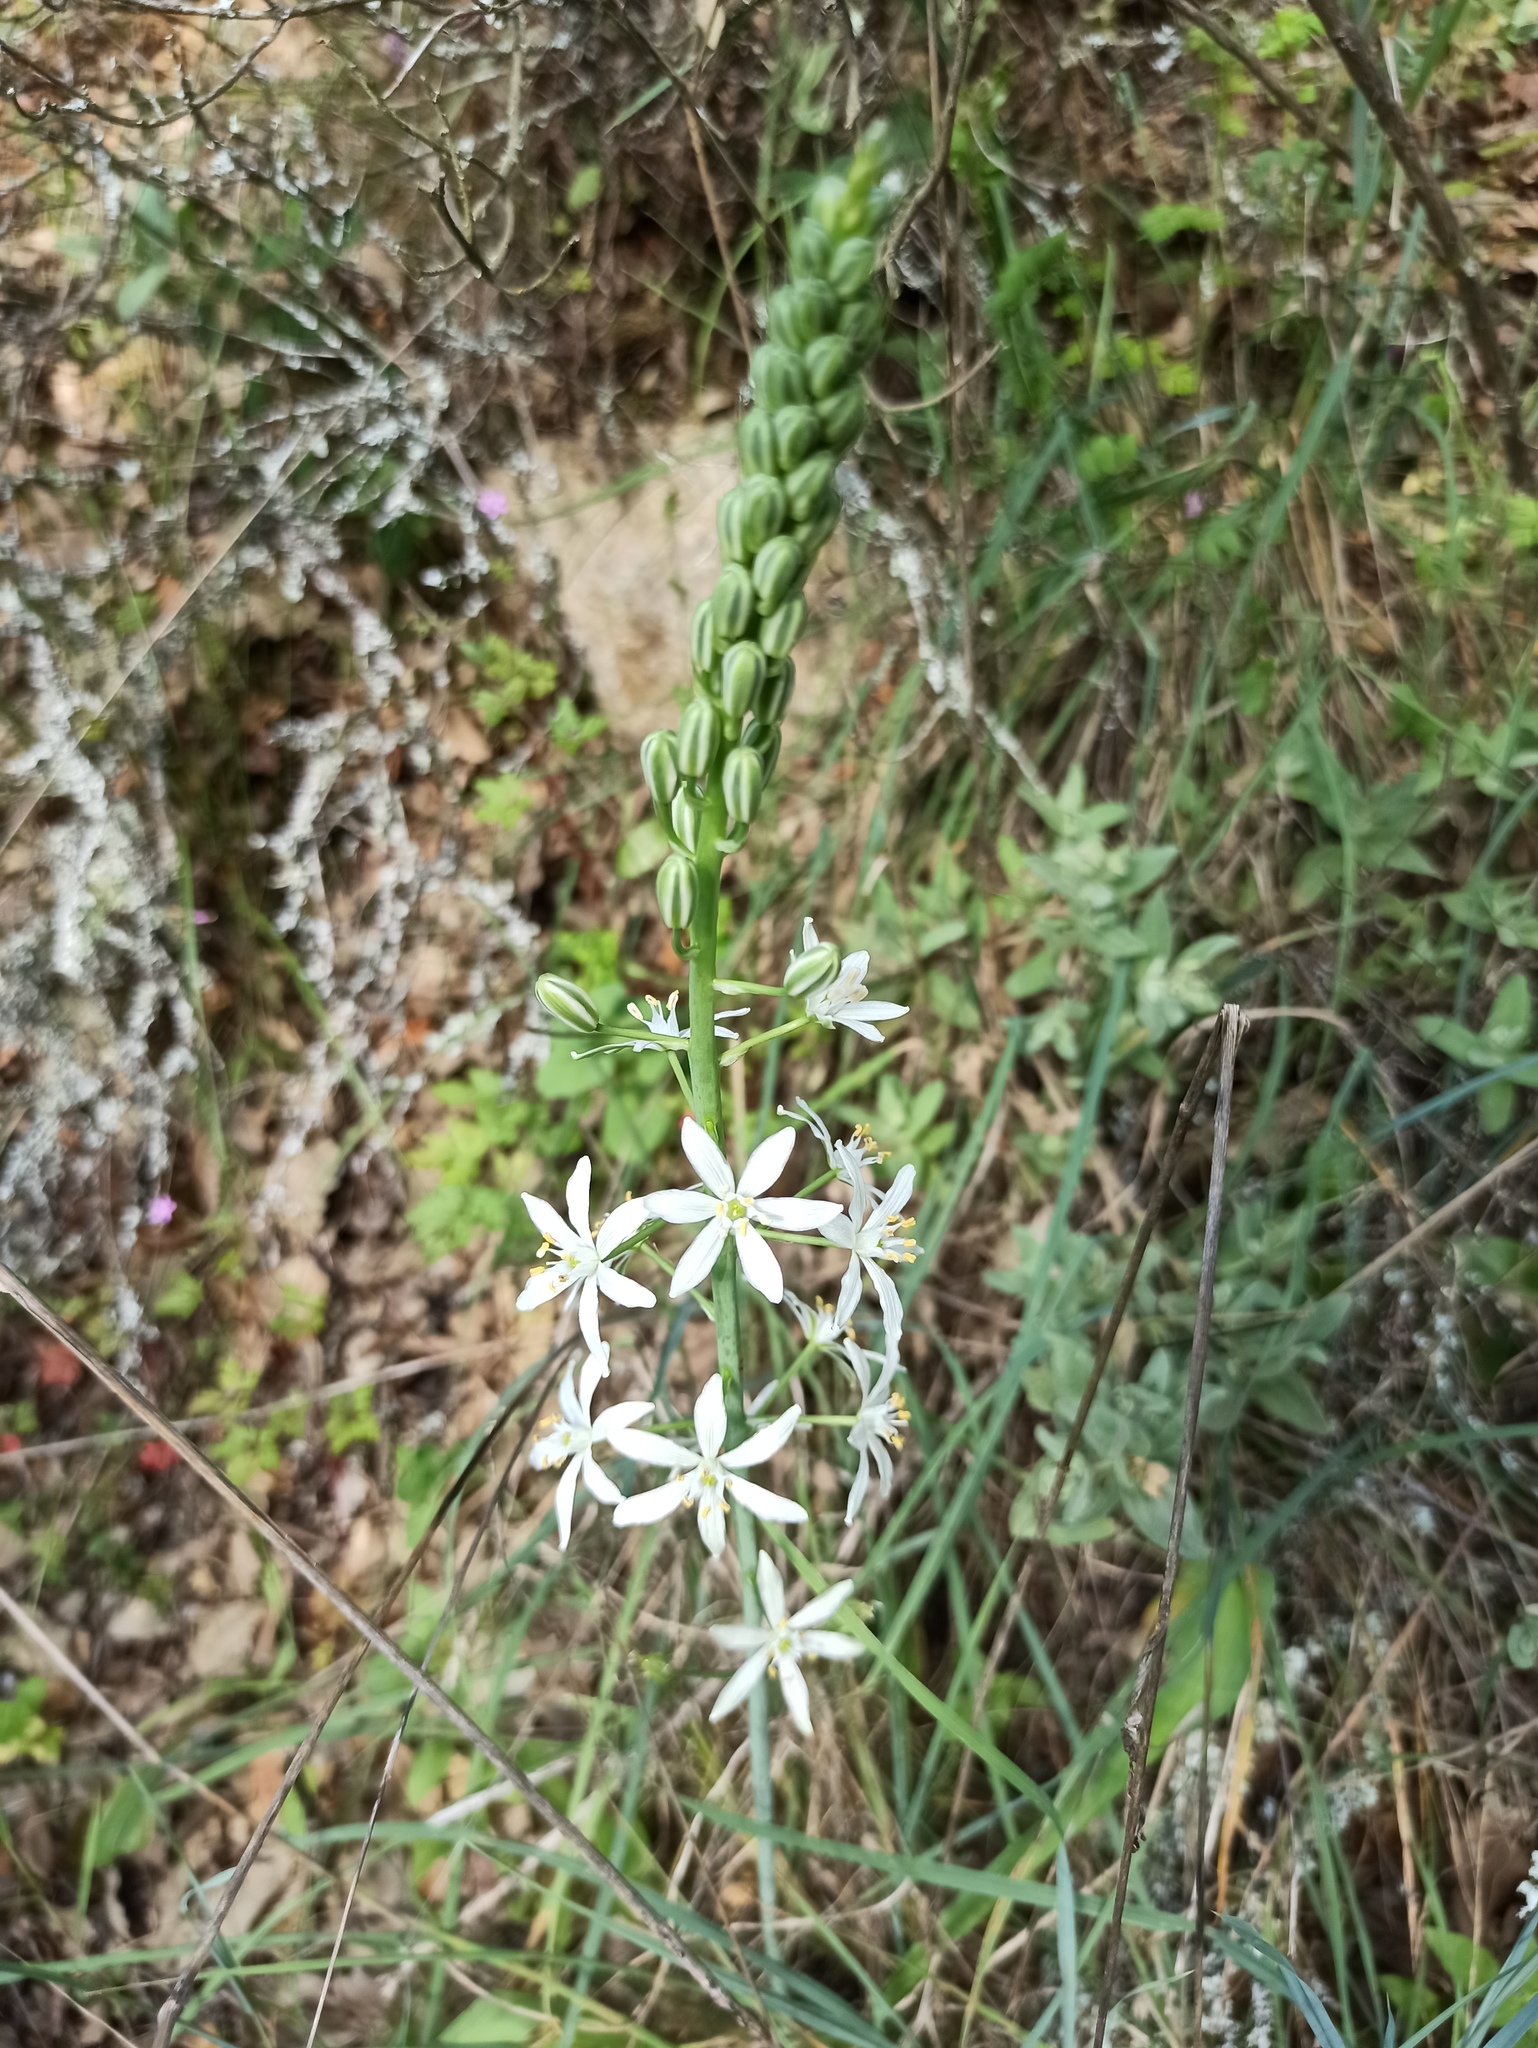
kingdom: Plantae
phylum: Tracheophyta
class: Liliopsida
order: Asparagales
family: Asparagaceae
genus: Ornithogalum
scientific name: Ornithogalum narbonense
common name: Bath-asparagus
